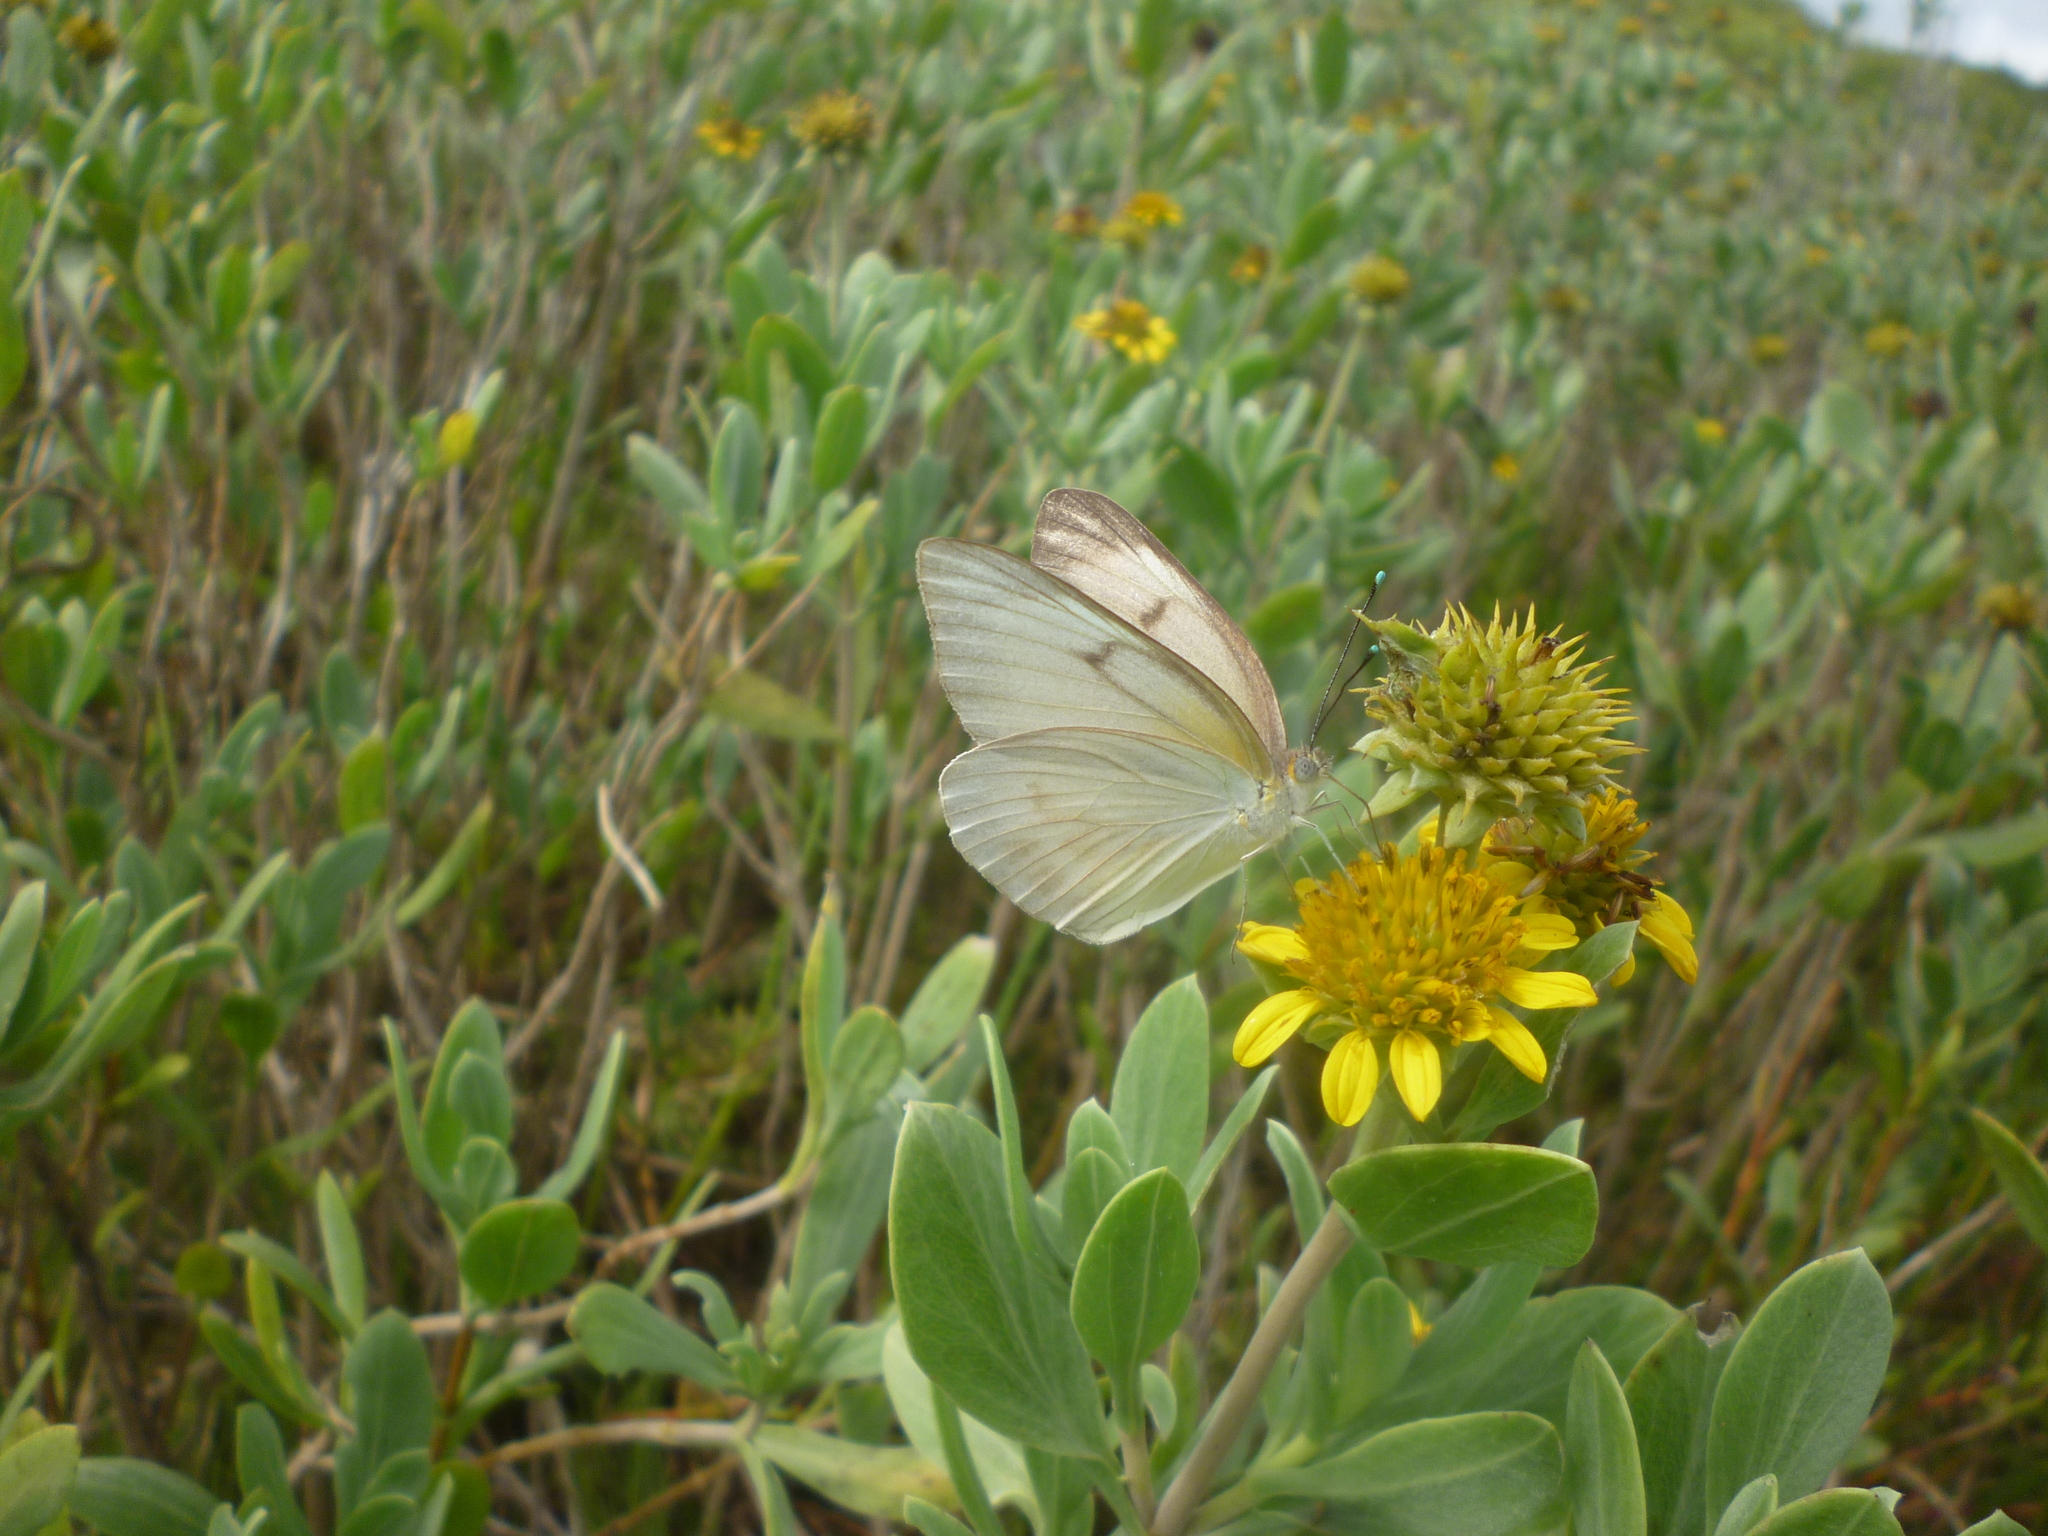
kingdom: Plantae
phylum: Tracheophyta
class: Magnoliopsida
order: Asterales
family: Asteraceae
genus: Borrichia
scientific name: Borrichia frutescens
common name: Sea oxeye
